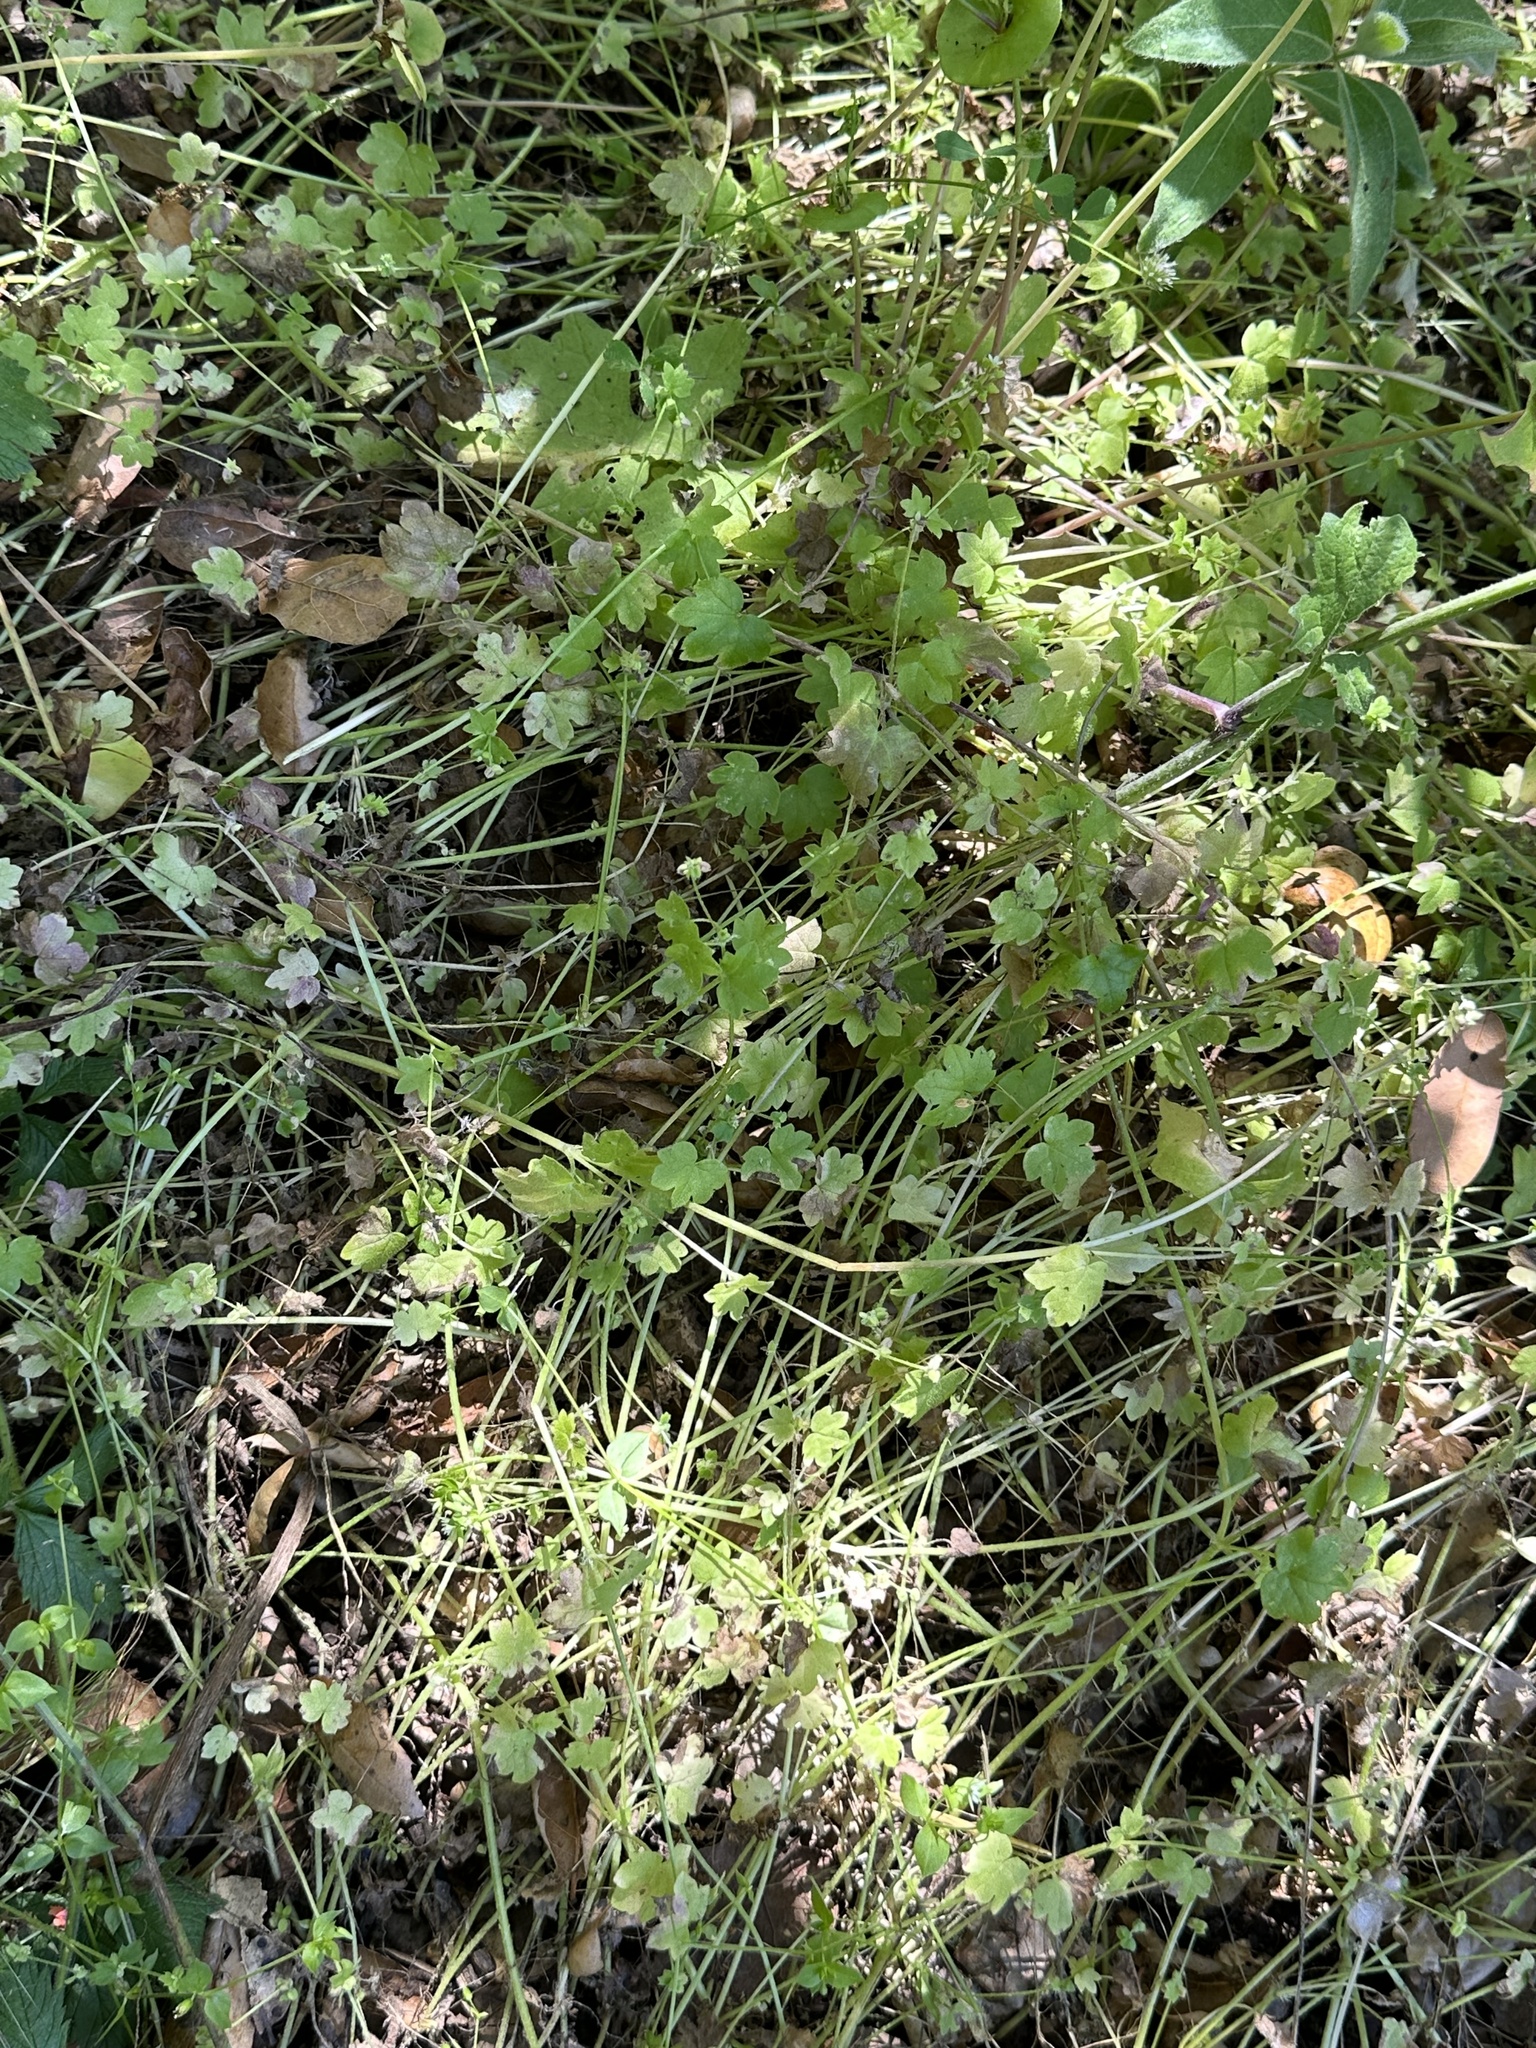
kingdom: Plantae
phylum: Tracheophyta
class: Magnoliopsida
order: Apiales
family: Apiaceae
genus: Bowlesia
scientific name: Bowlesia incana
